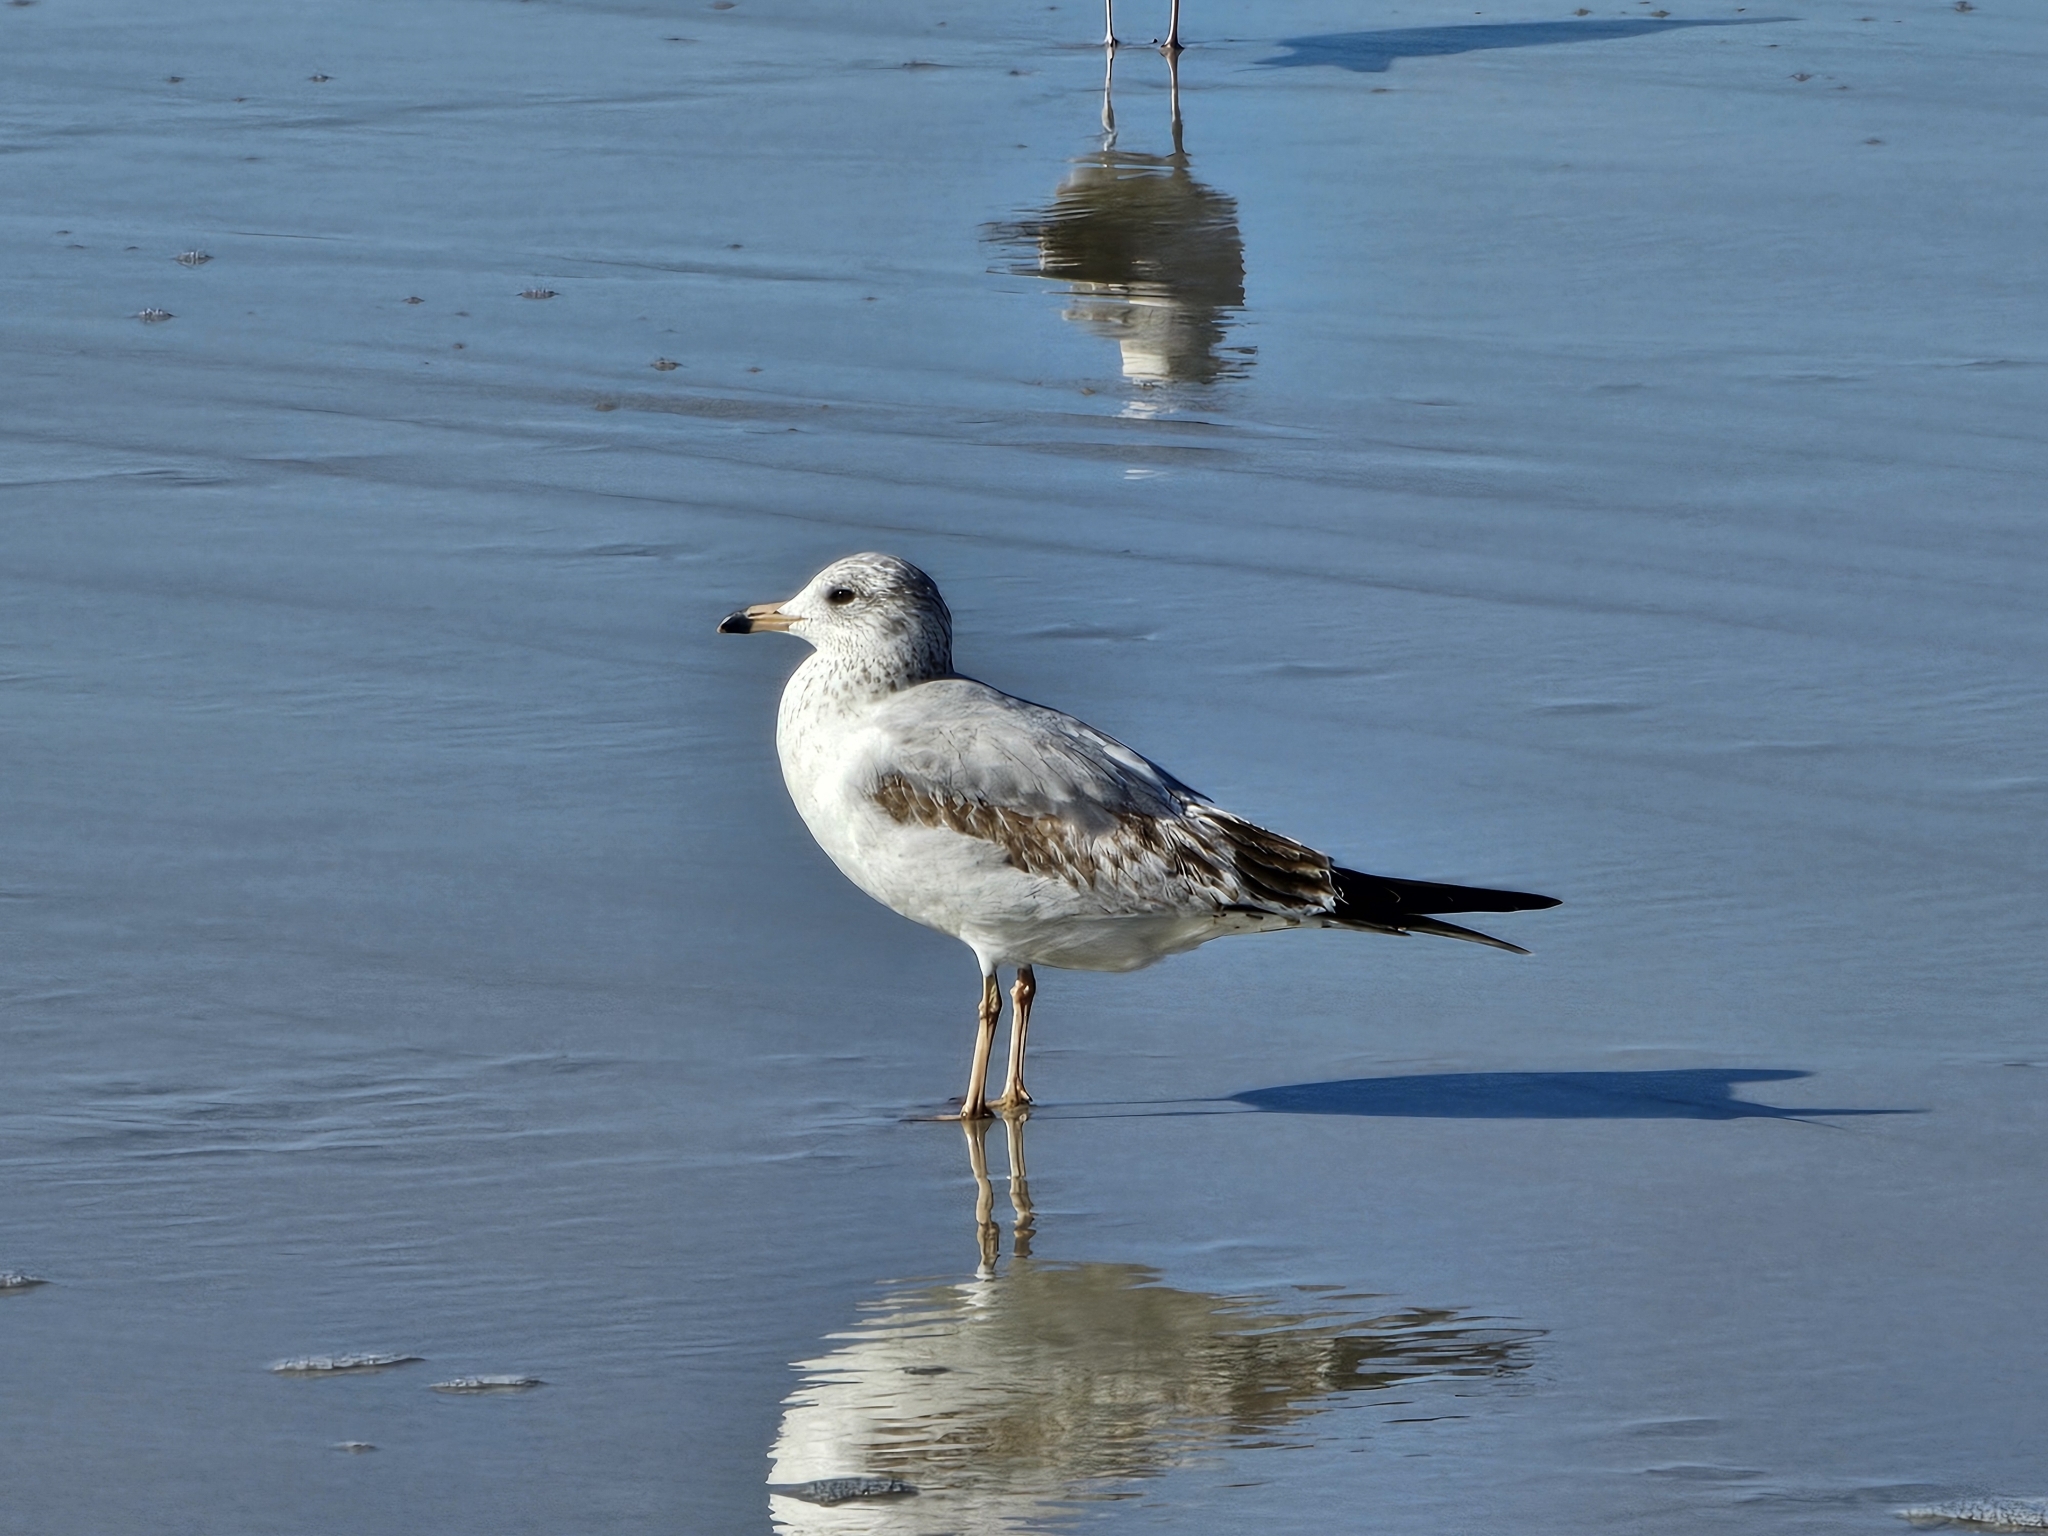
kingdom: Animalia
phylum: Chordata
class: Aves
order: Charadriiformes
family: Laridae
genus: Larus
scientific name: Larus delawarensis
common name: Ring-billed gull
